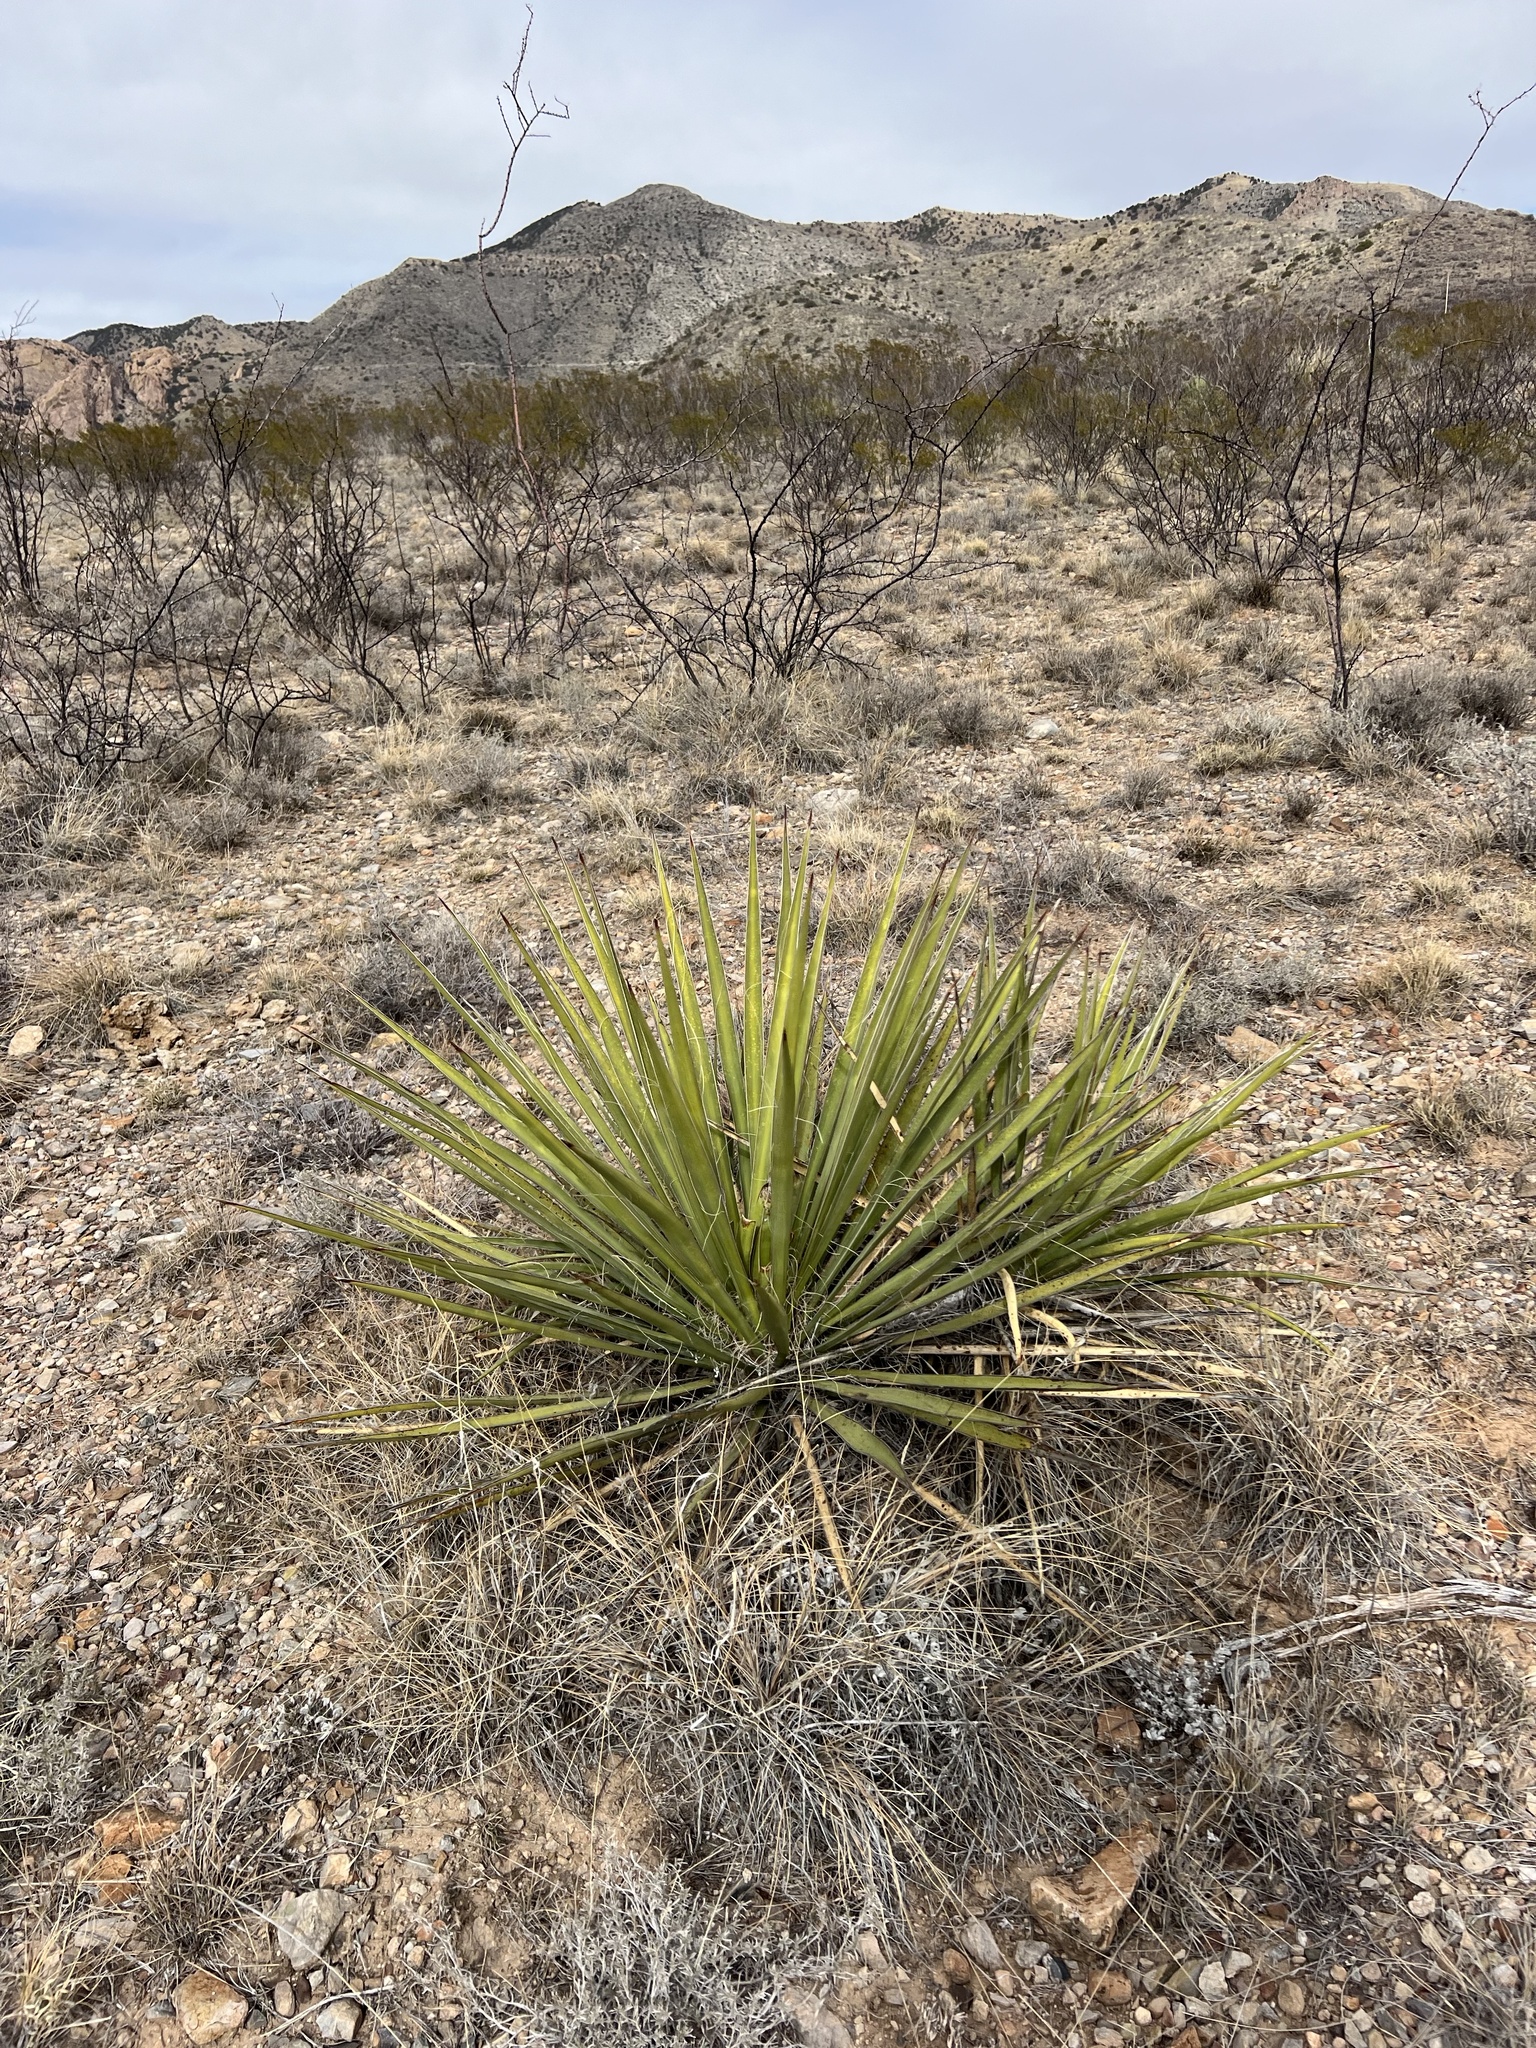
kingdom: Plantae
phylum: Tracheophyta
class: Liliopsida
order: Asparagales
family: Asparagaceae
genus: Yucca
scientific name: Yucca baccata
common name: Banana yucca
